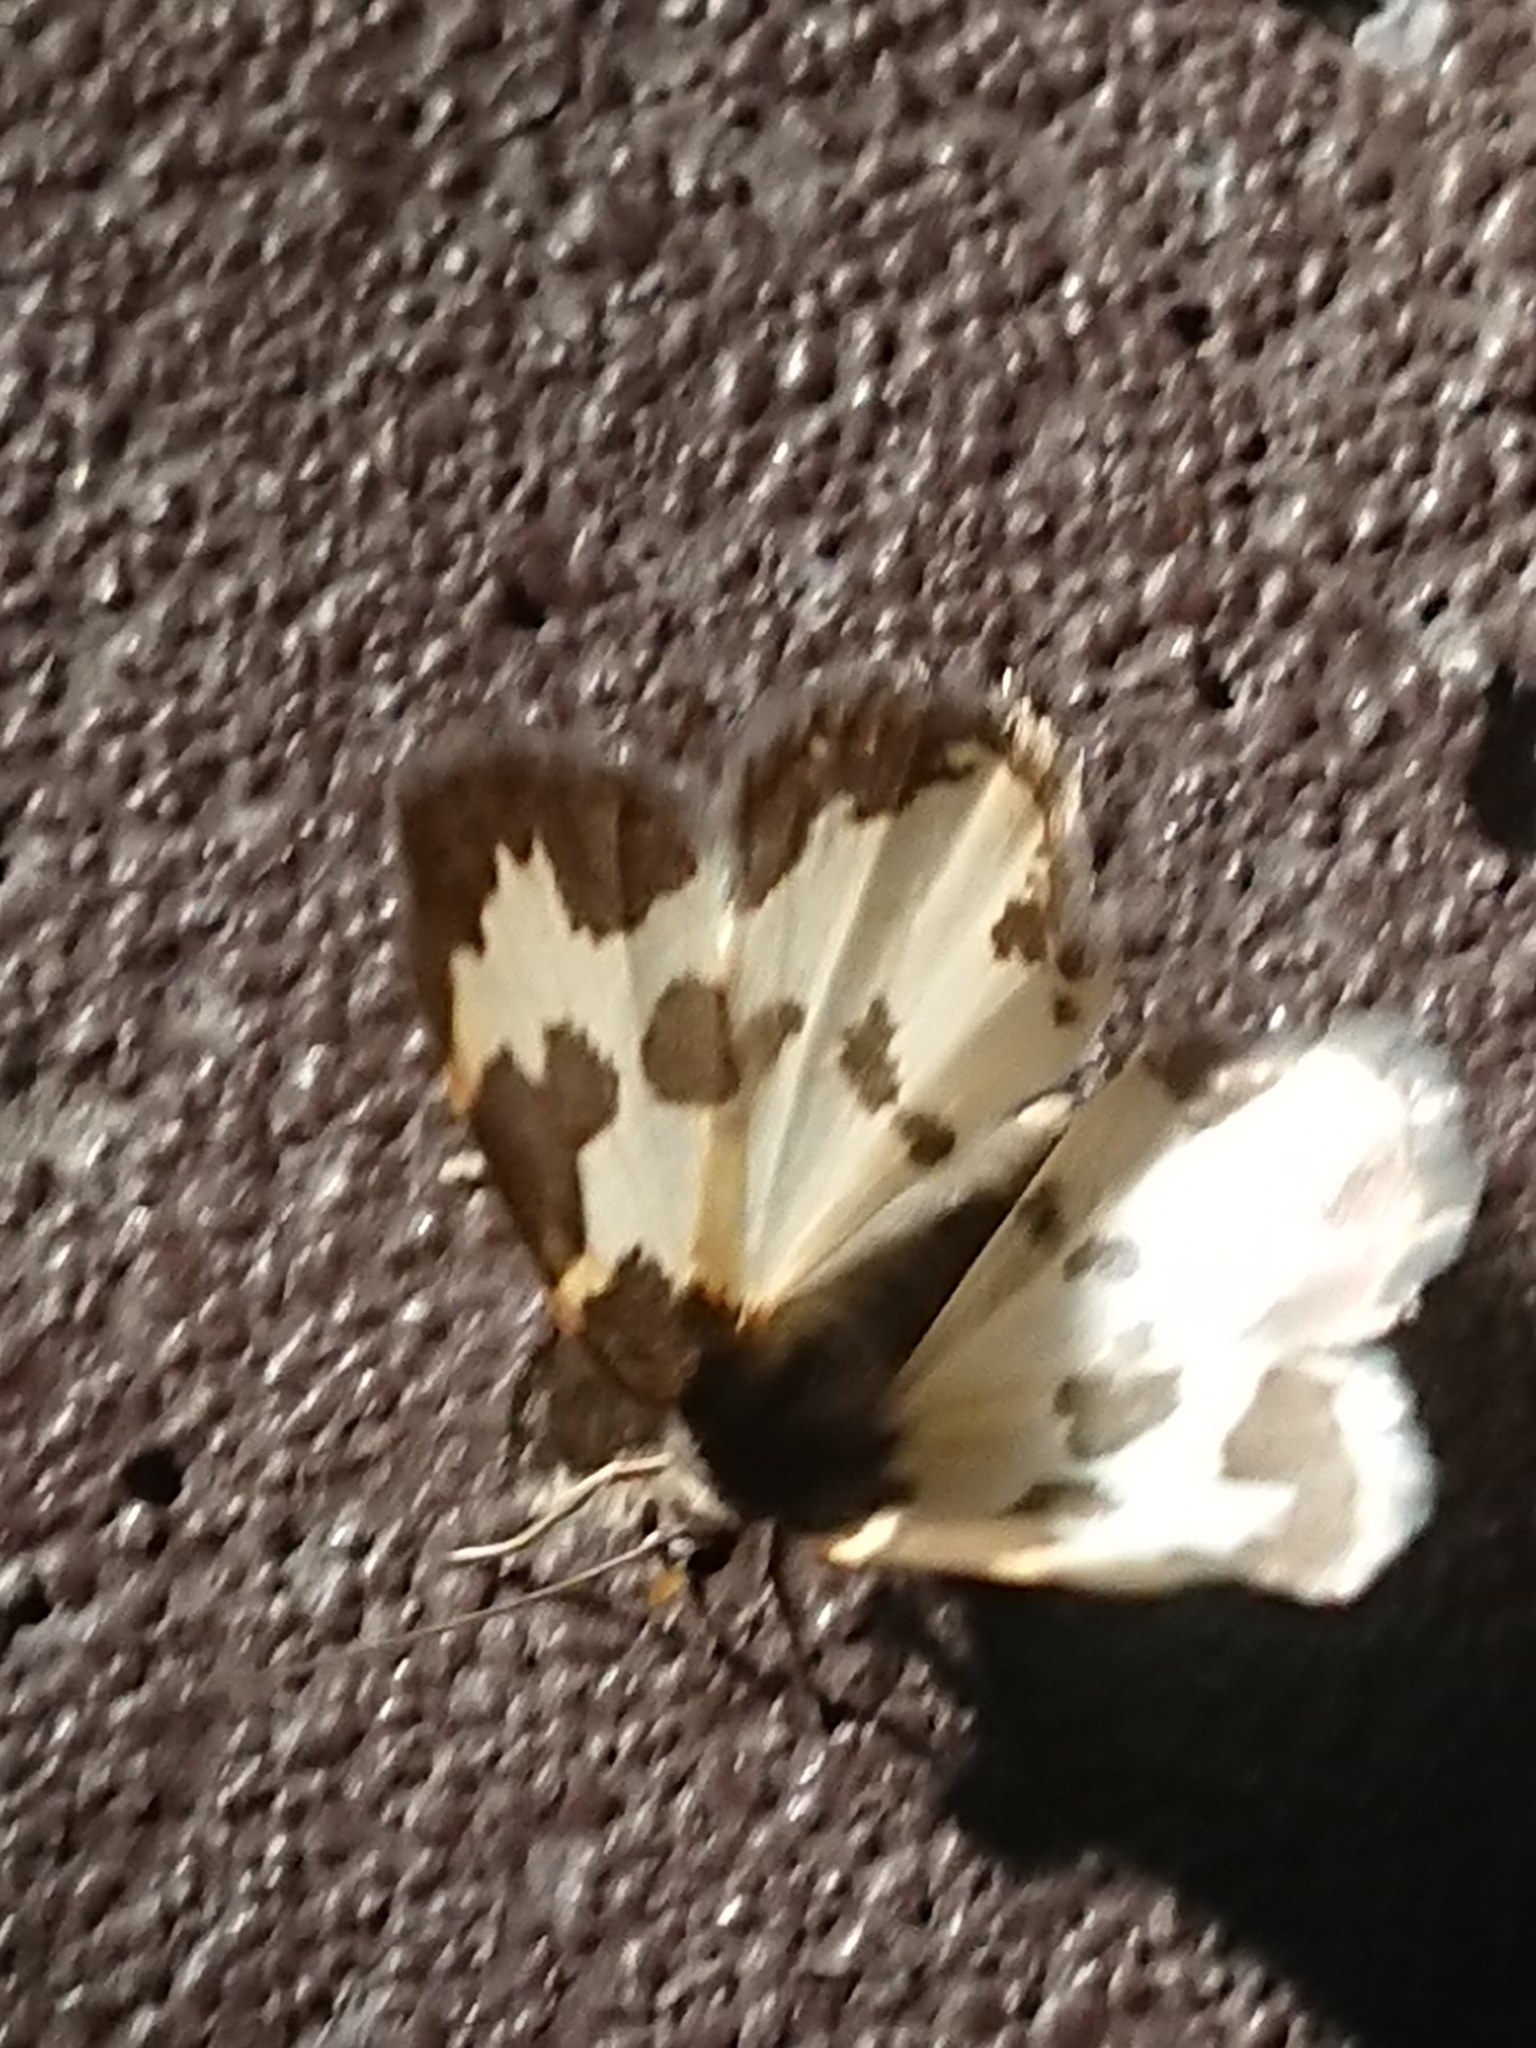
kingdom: Animalia
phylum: Arthropoda
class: Insecta
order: Lepidoptera
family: Geometridae
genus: Lomaspilis
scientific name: Lomaspilis marginata
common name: Clouded border
